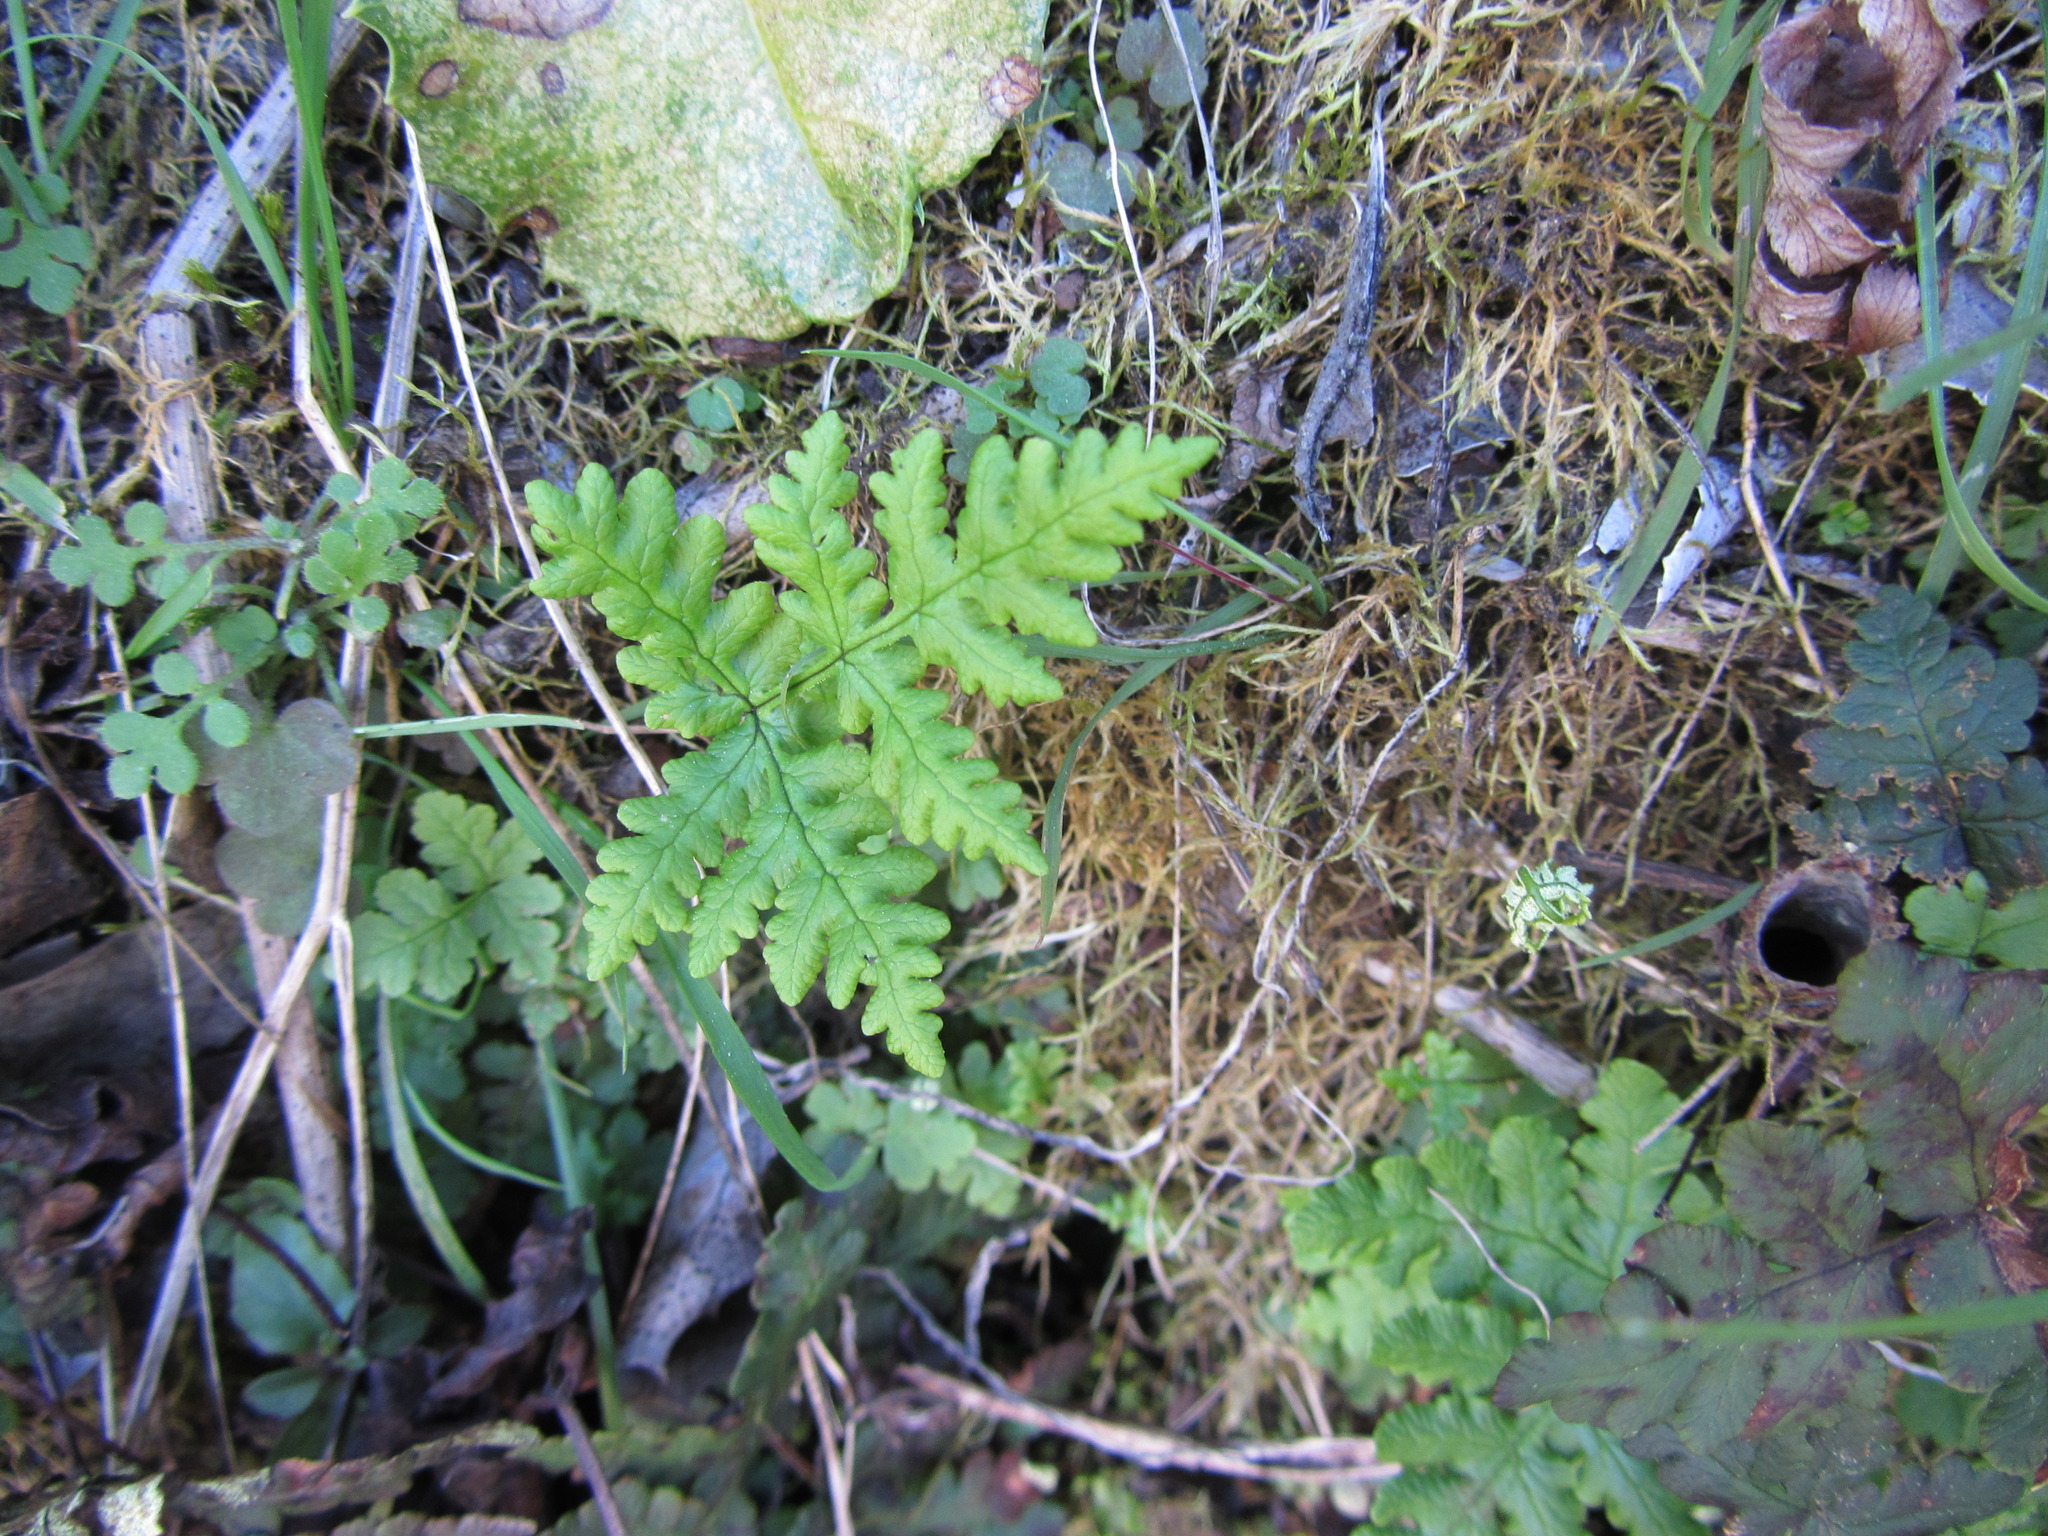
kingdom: Plantae
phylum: Tracheophyta
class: Polypodiopsida
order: Polypodiales
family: Pteridaceae
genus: Pentagramma
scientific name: Pentagramma triangularis
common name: Gold fern
